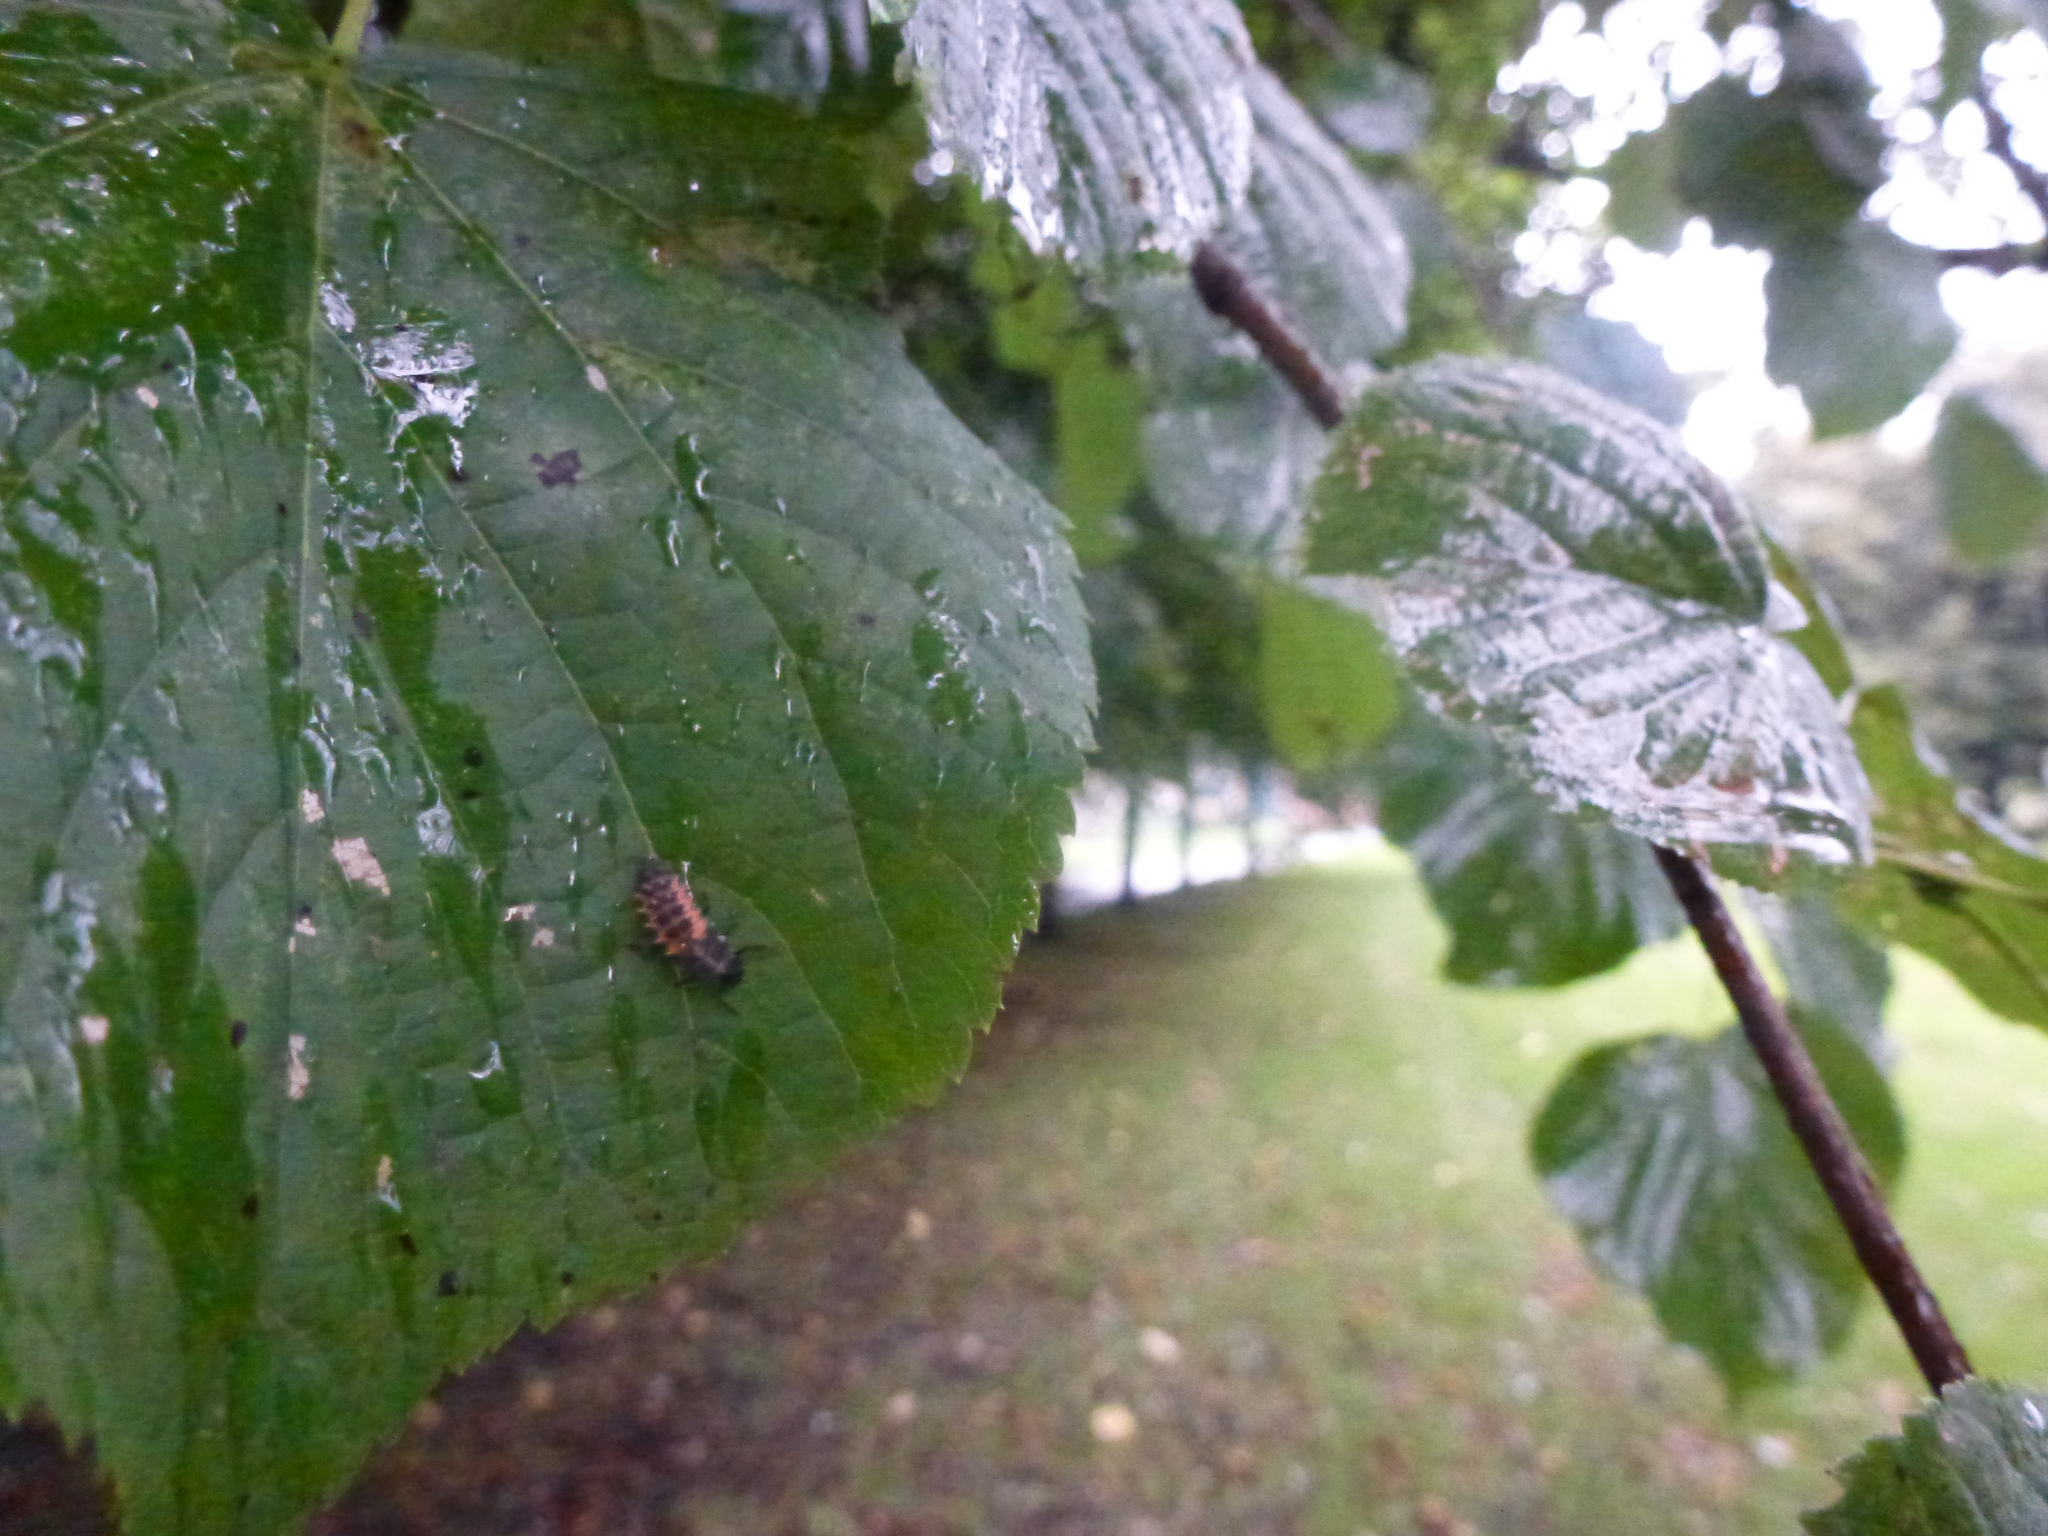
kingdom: Animalia
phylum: Arthropoda
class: Insecta
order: Coleoptera
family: Coccinellidae
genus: Harmonia
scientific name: Harmonia axyridis
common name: Harlequin ladybird
